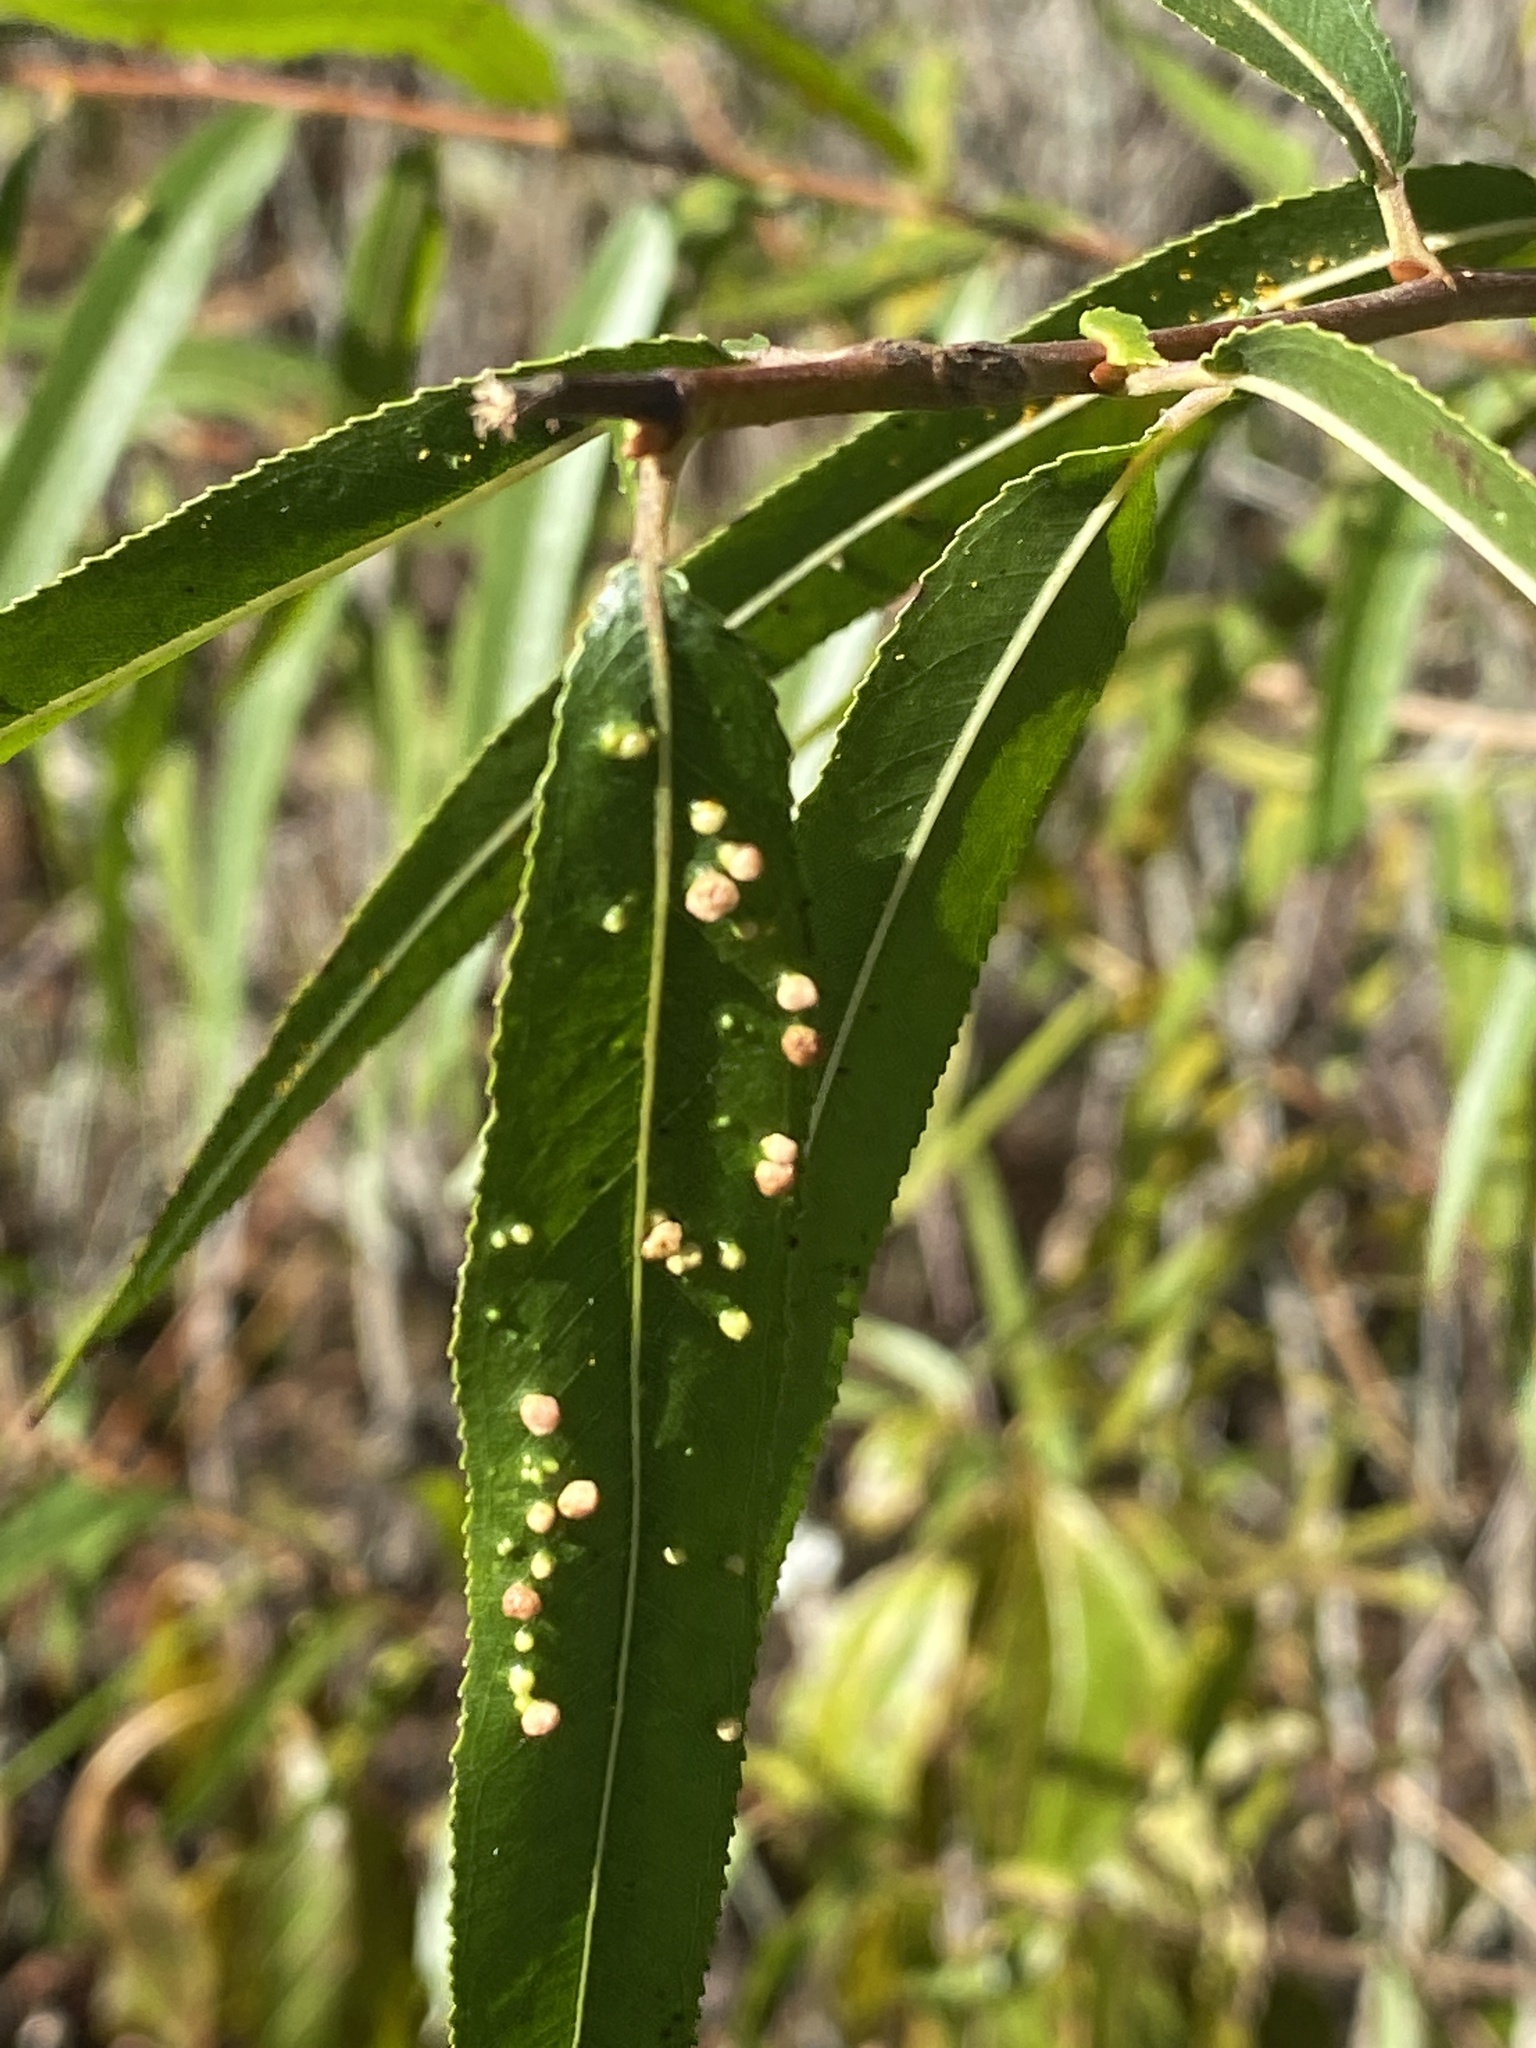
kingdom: Animalia
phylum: Arthropoda
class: Arachnida
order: Trombidiformes
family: Eriophyidae
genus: Aculus
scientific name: Aculus tetanothrix
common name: Willow bead gall mite
